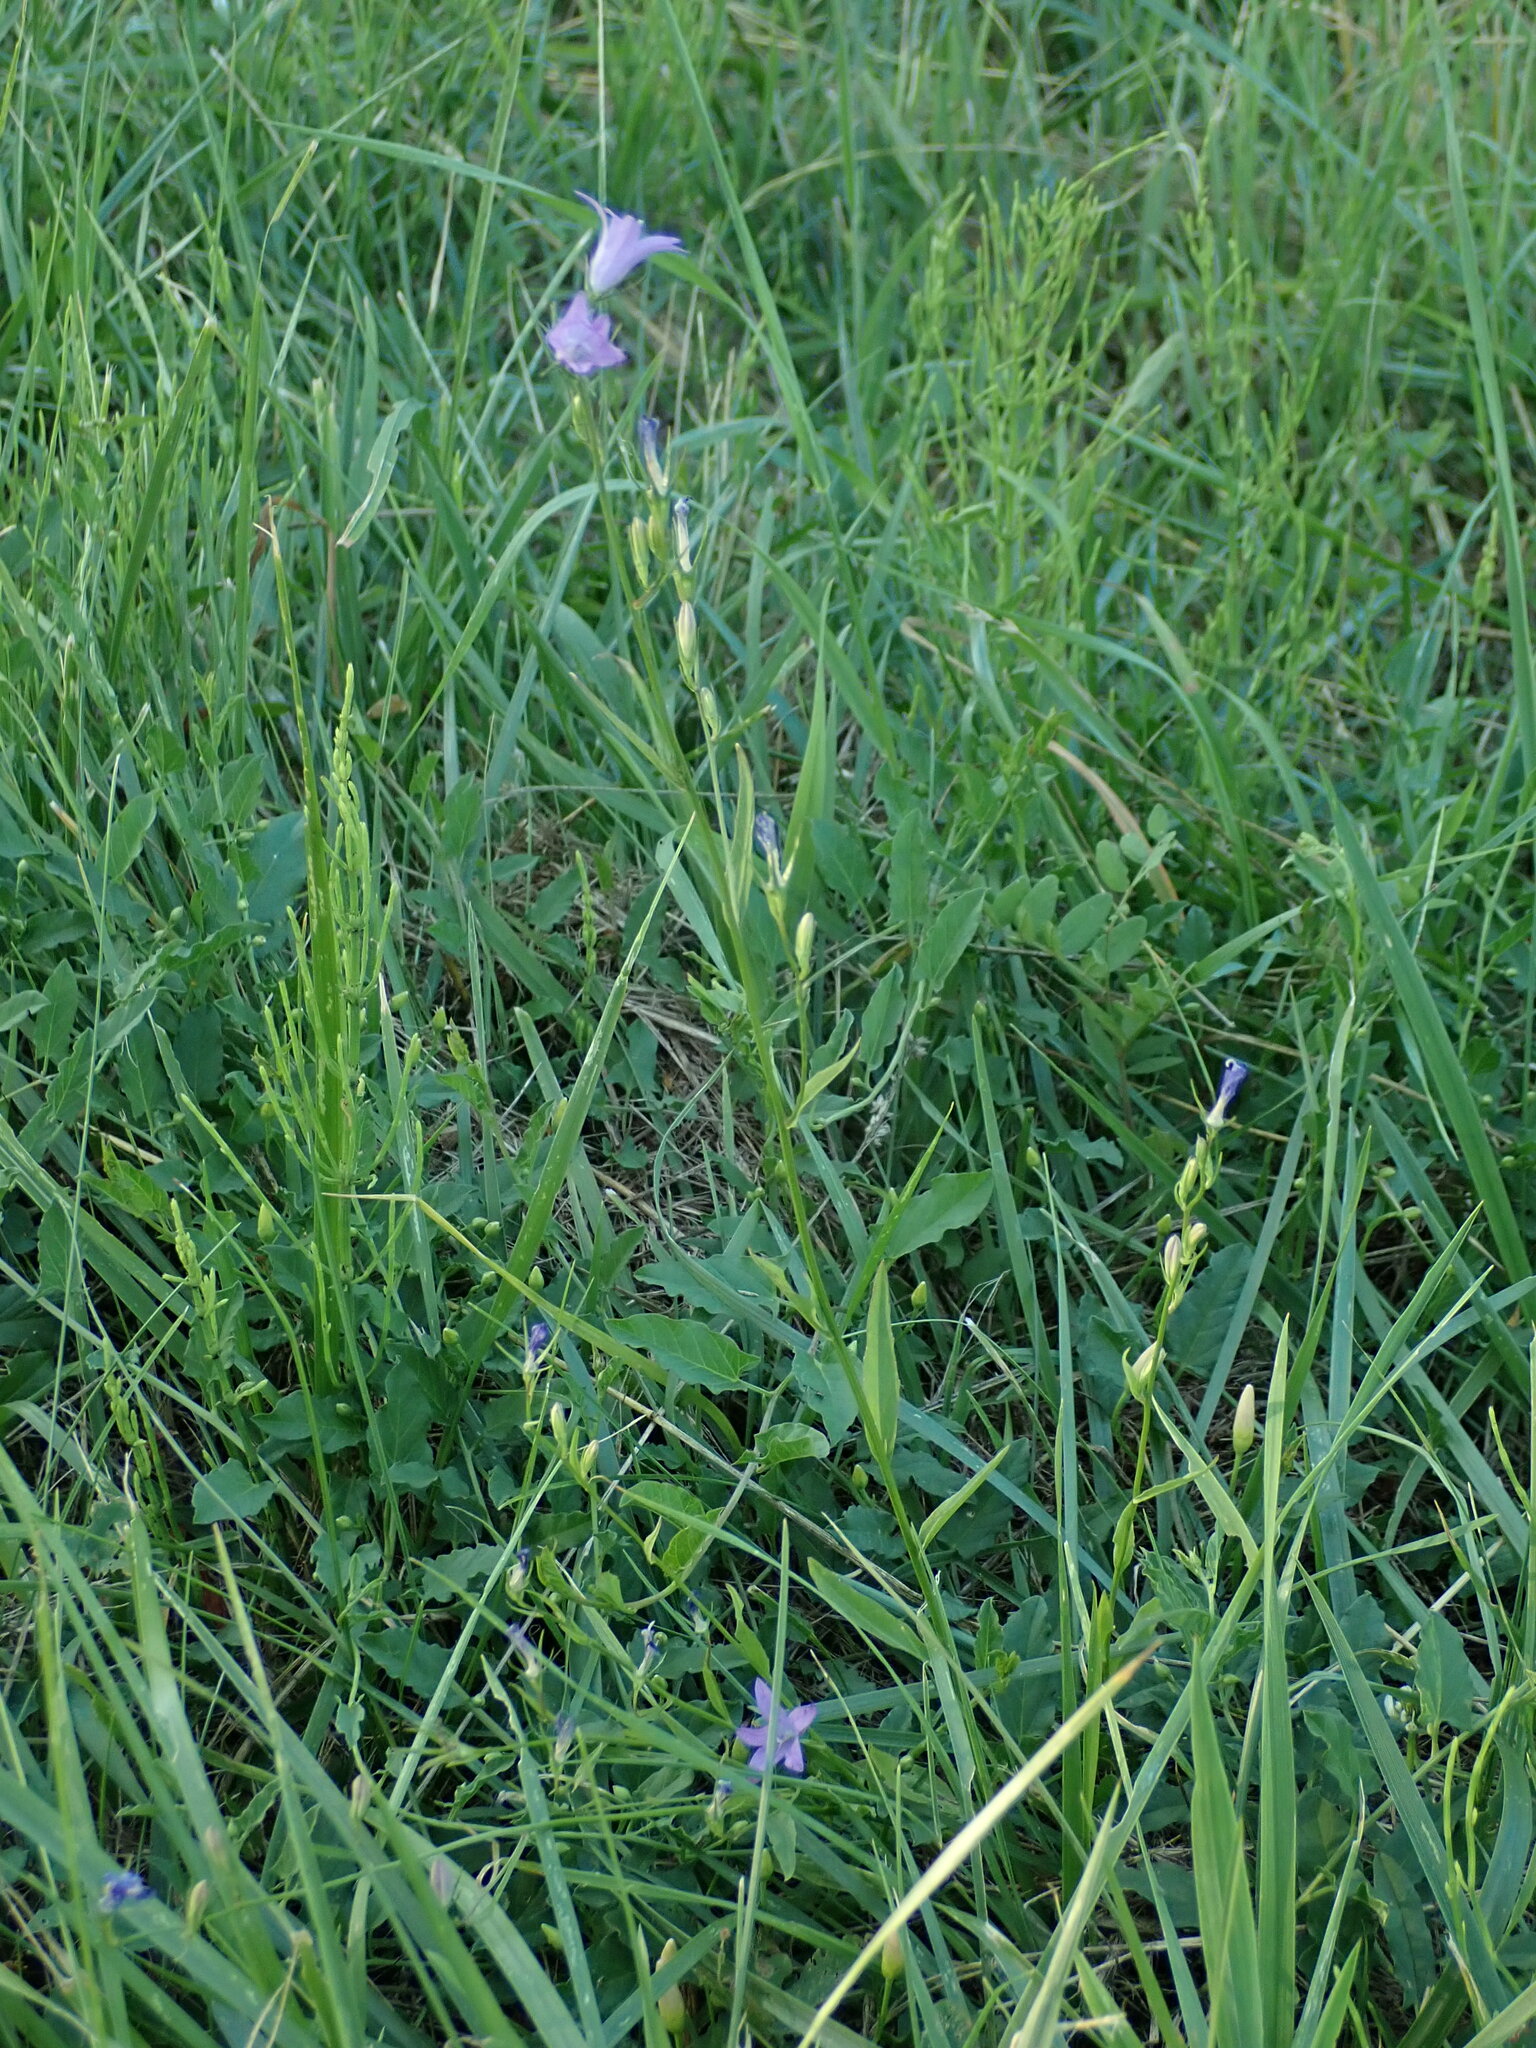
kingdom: Plantae
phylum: Tracheophyta
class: Magnoliopsida
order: Asterales
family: Campanulaceae
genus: Campanula
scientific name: Campanula rapunculus
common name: Rampion bellflower
